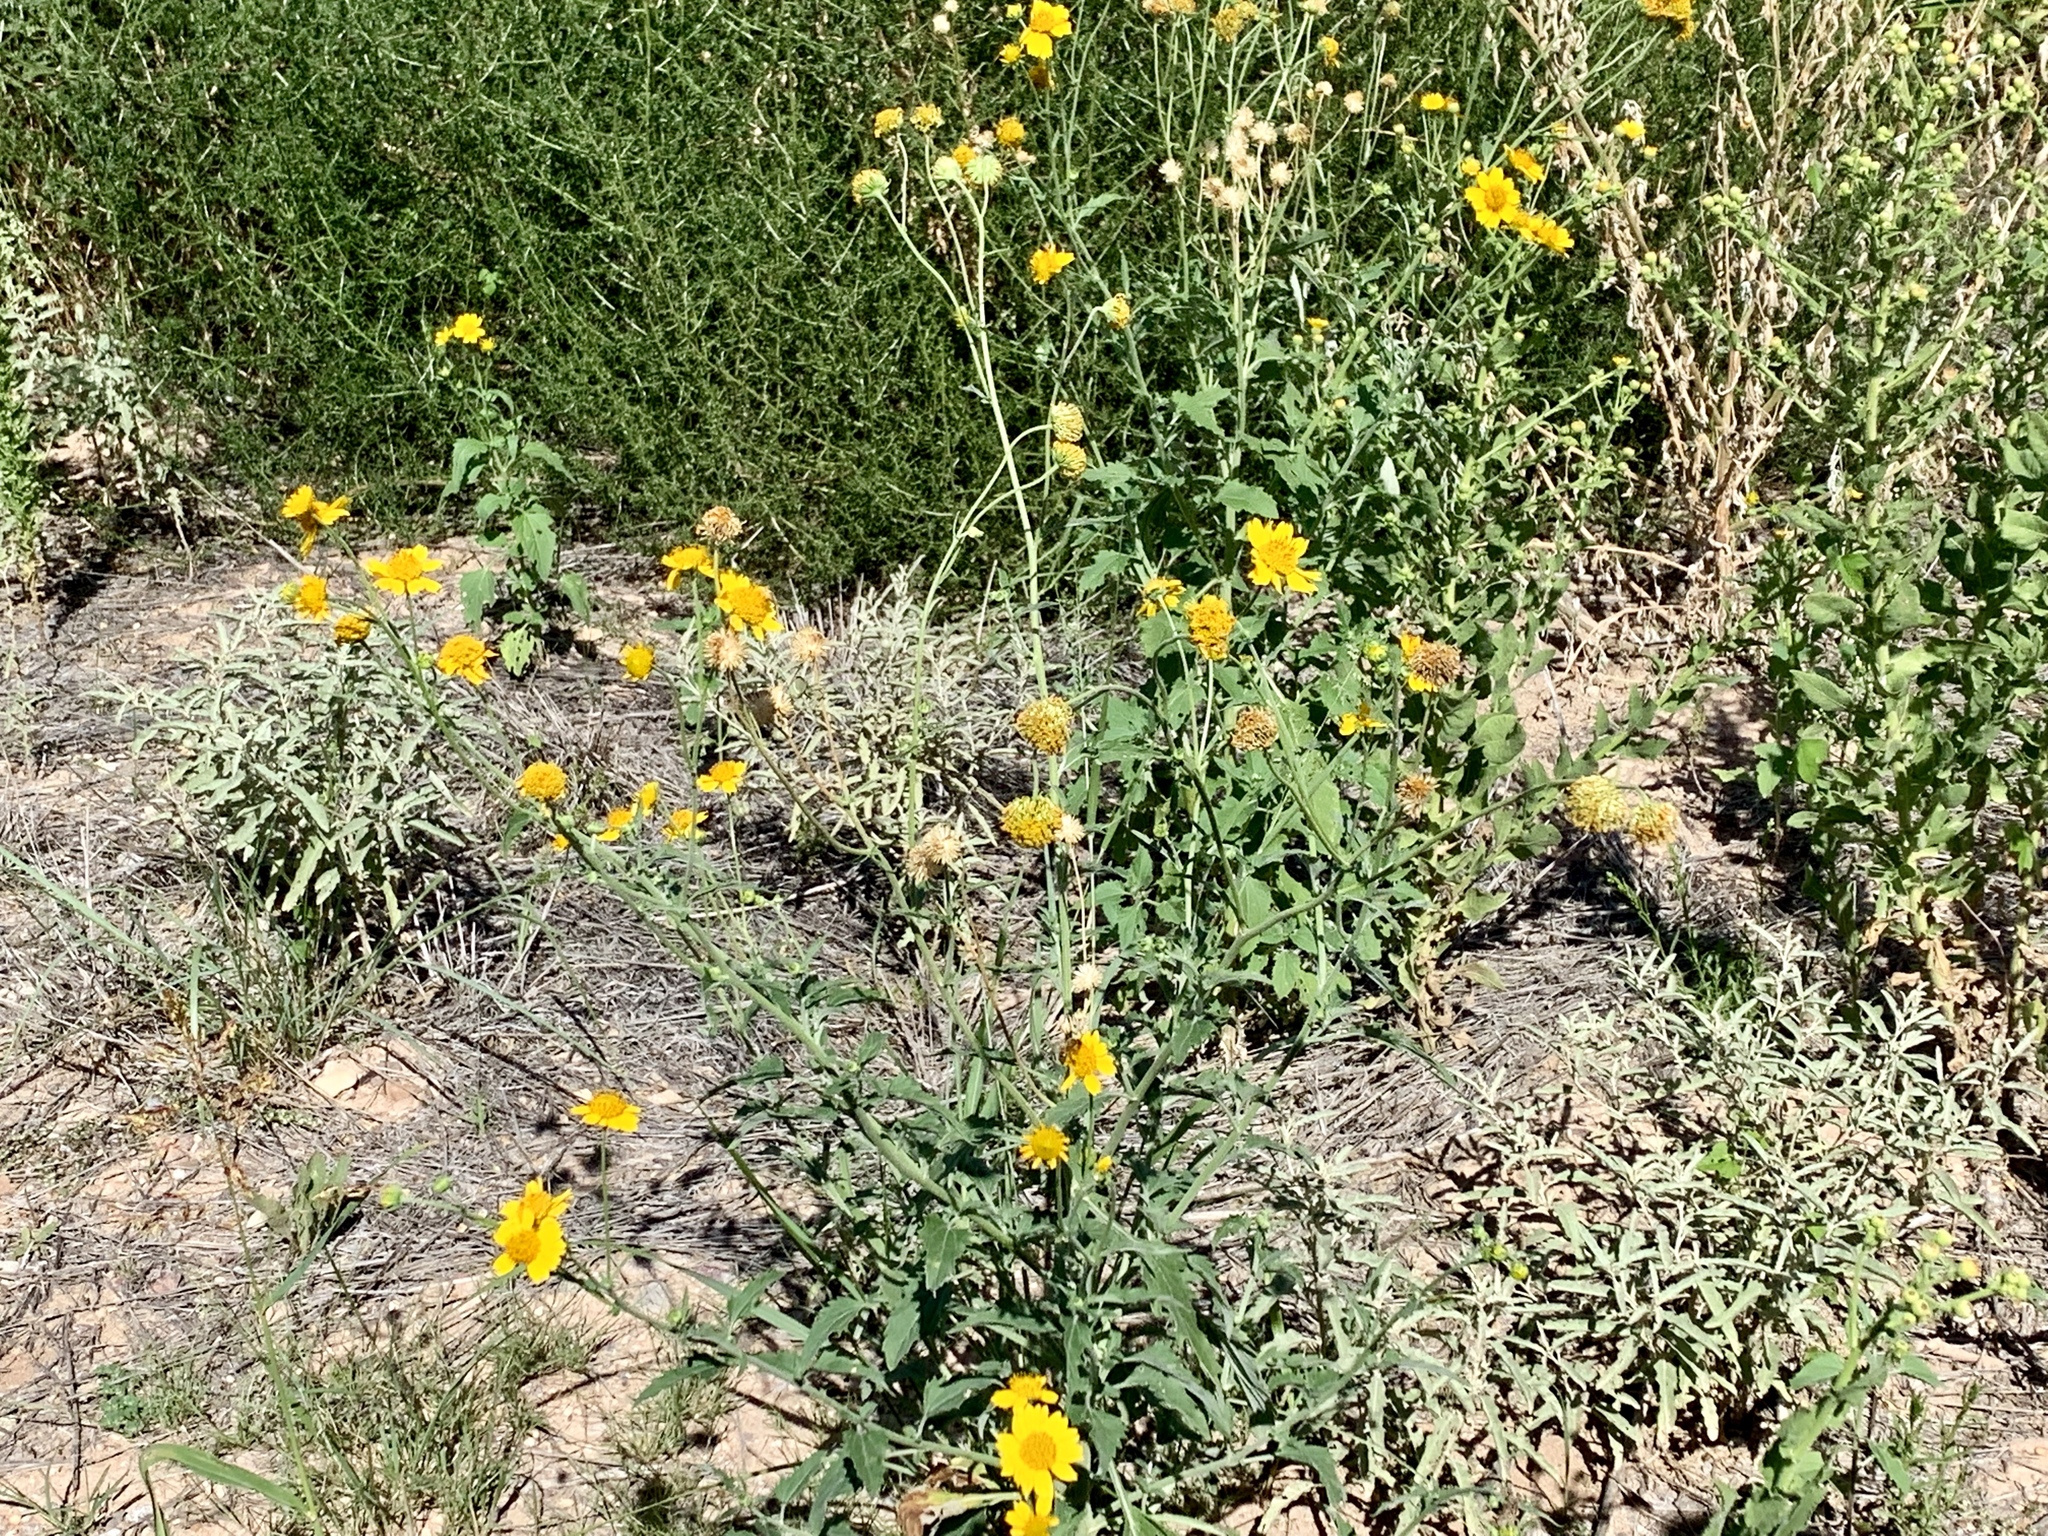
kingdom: Plantae
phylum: Tracheophyta
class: Magnoliopsida
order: Asterales
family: Asteraceae
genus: Verbesina
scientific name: Verbesina encelioides
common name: Golden crownbeard
